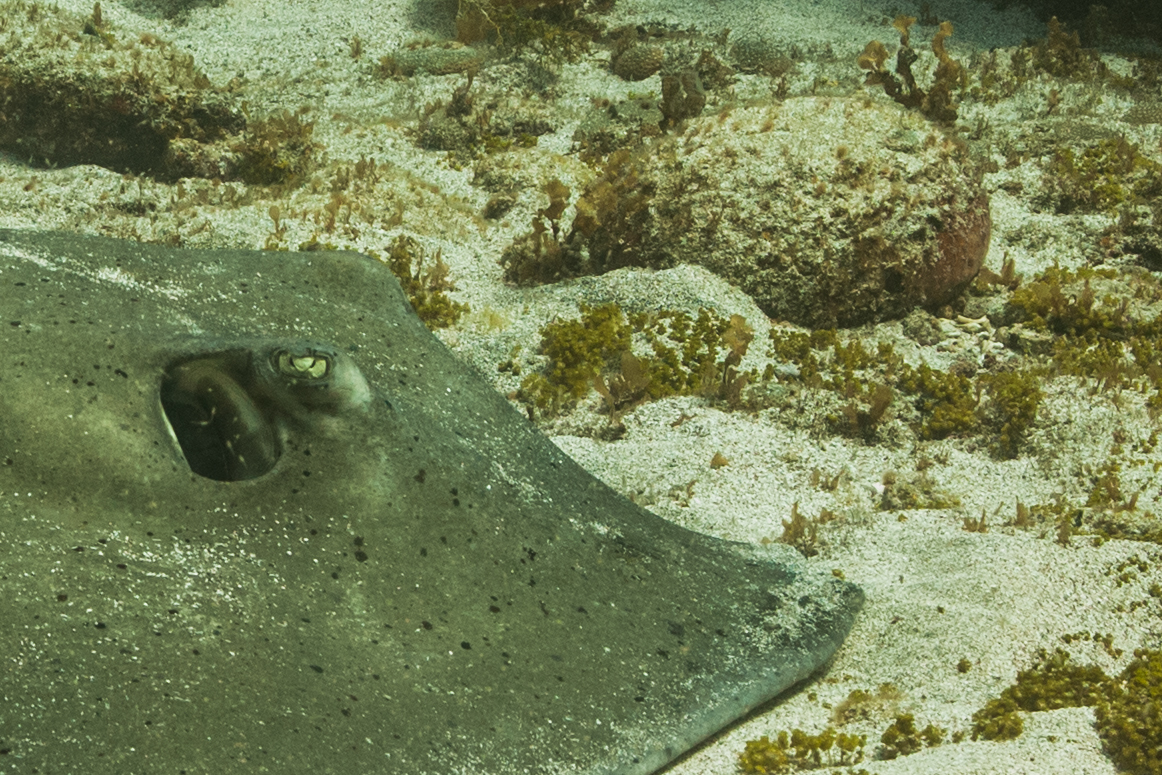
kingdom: Animalia
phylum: Chordata
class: Elasmobranchii
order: Myliobatiformes
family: Dasyatidae
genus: Hypanus
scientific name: Hypanus berthalutzae
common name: Lutz's stingray
